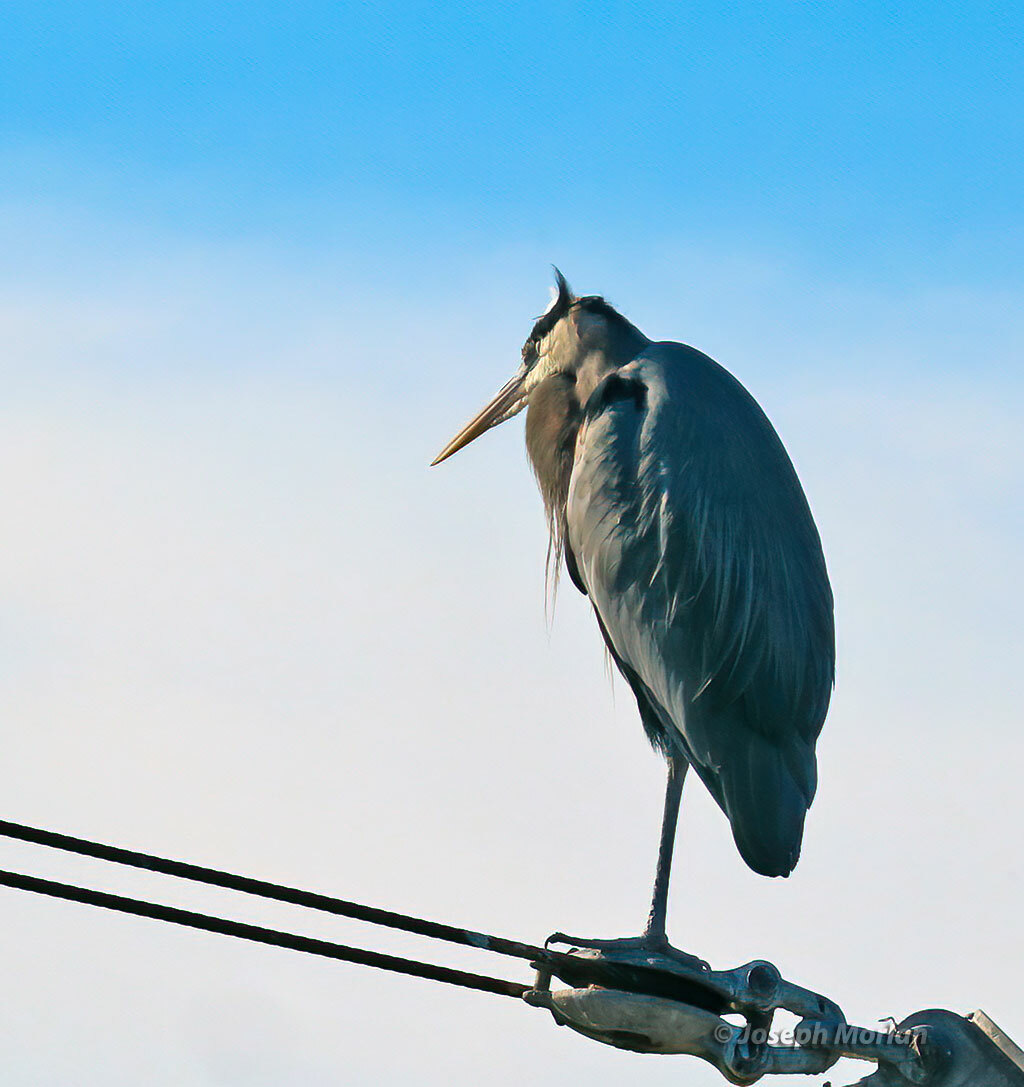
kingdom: Animalia
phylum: Chordata
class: Aves
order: Pelecaniformes
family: Ardeidae
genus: Ardea
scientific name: Ardea herodias
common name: Great blue heron
